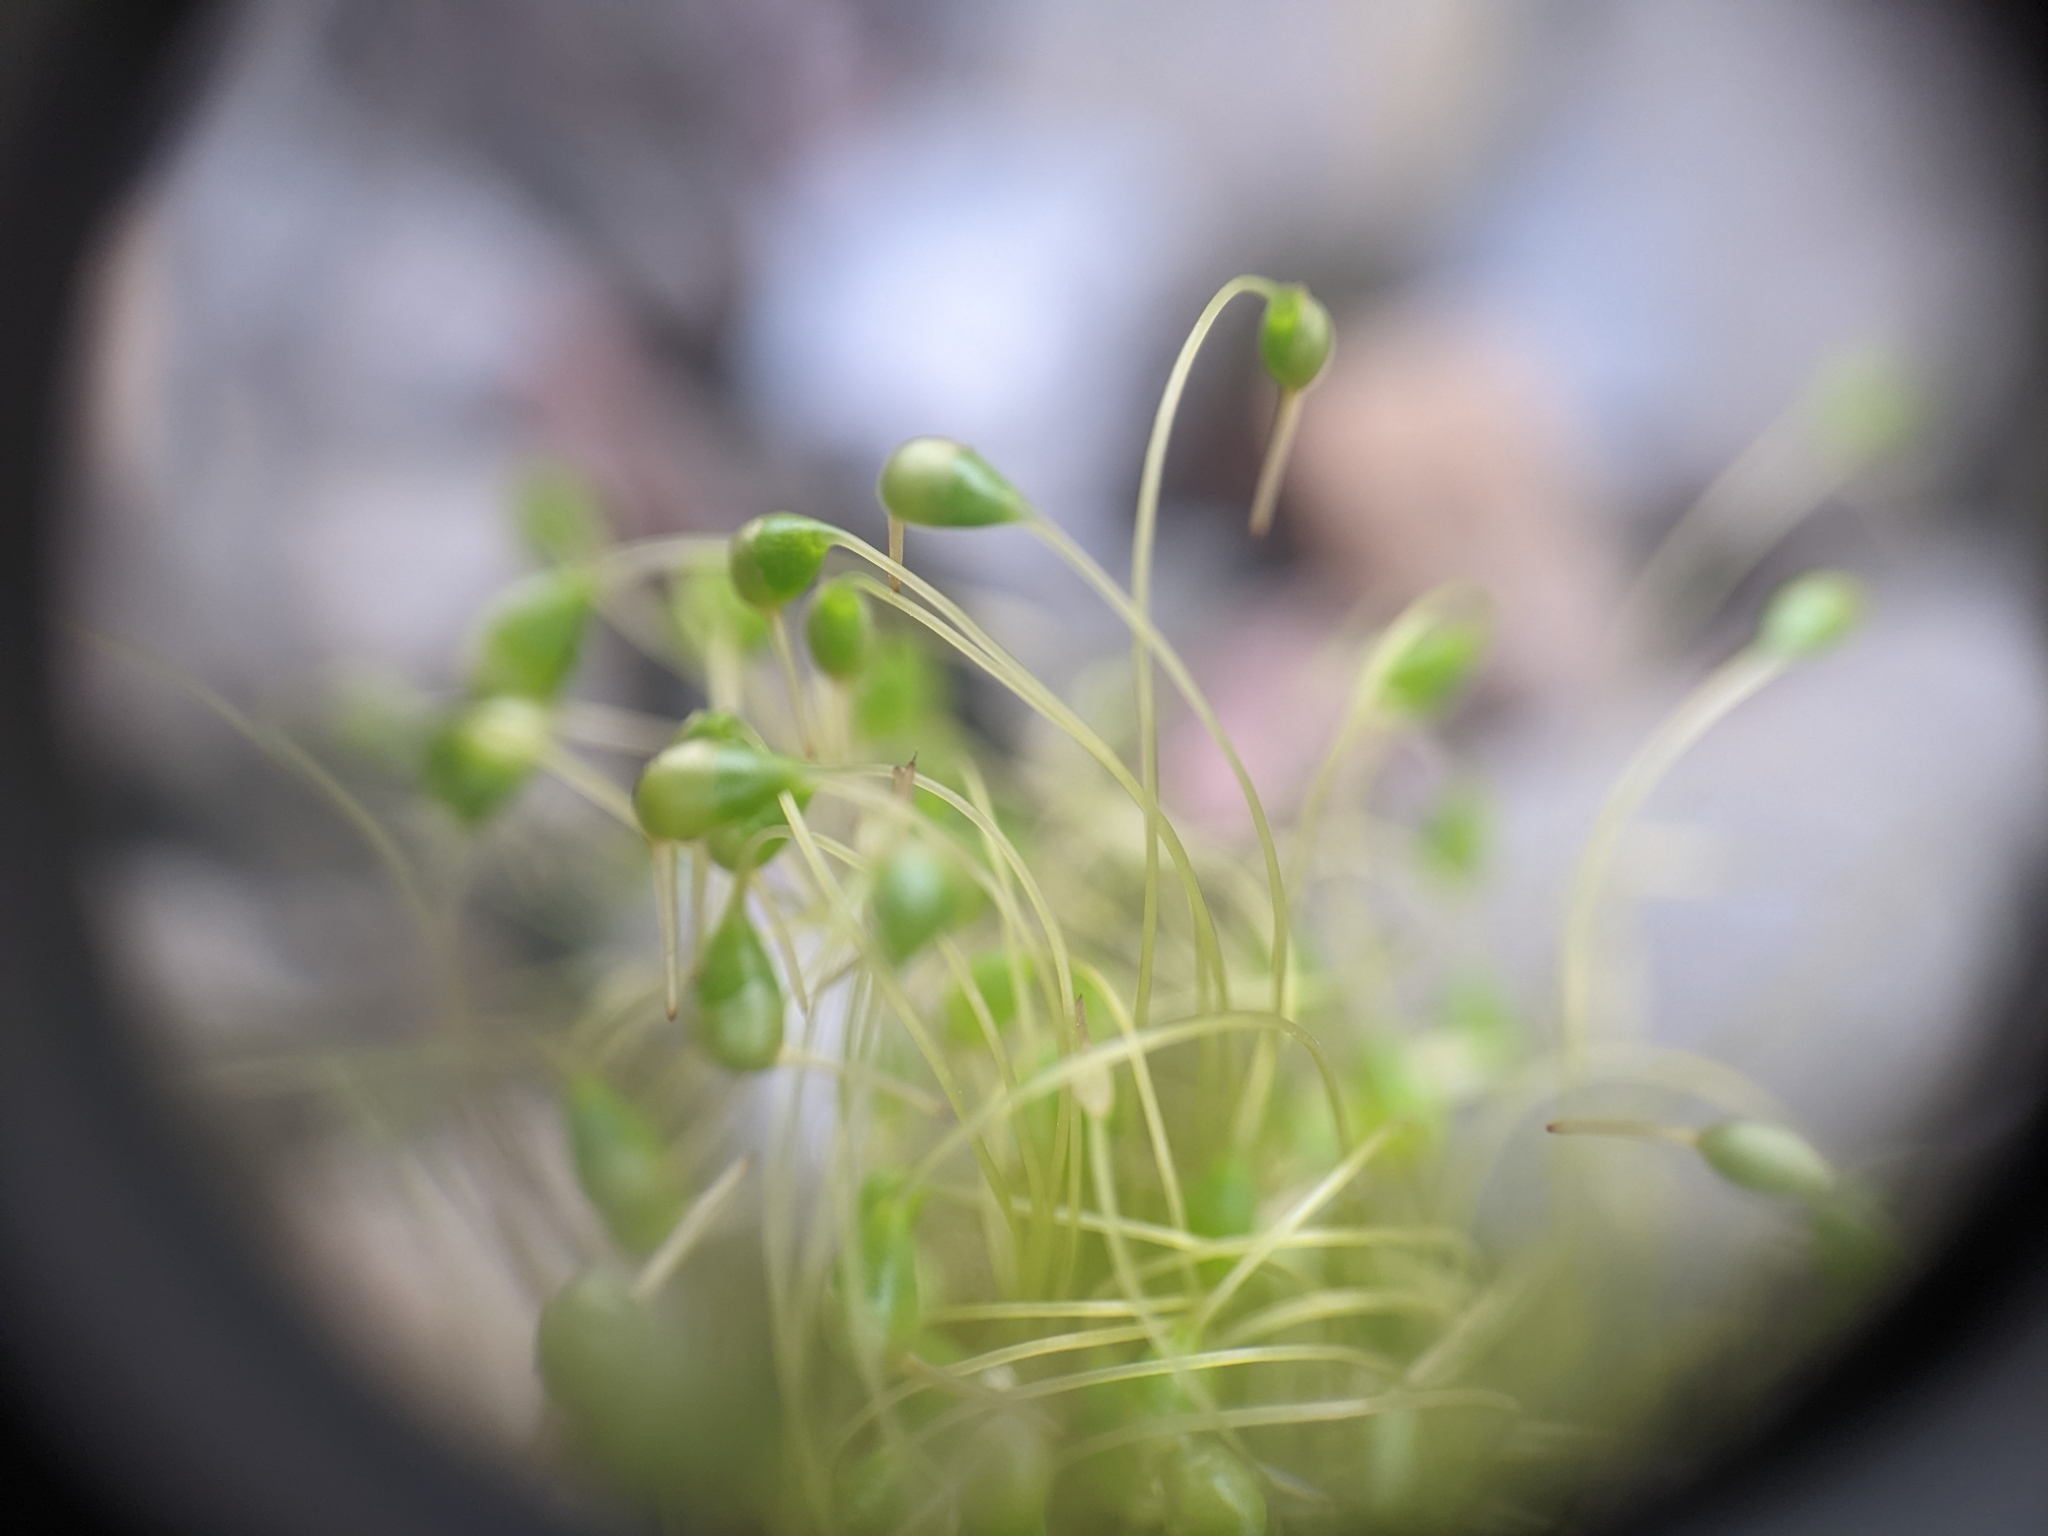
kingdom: Plantae
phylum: Bryophyta
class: Bryopsida
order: Funariales
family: Funariaceae
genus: Funaria
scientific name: Funaria hygrometrica
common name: Common cord moss
